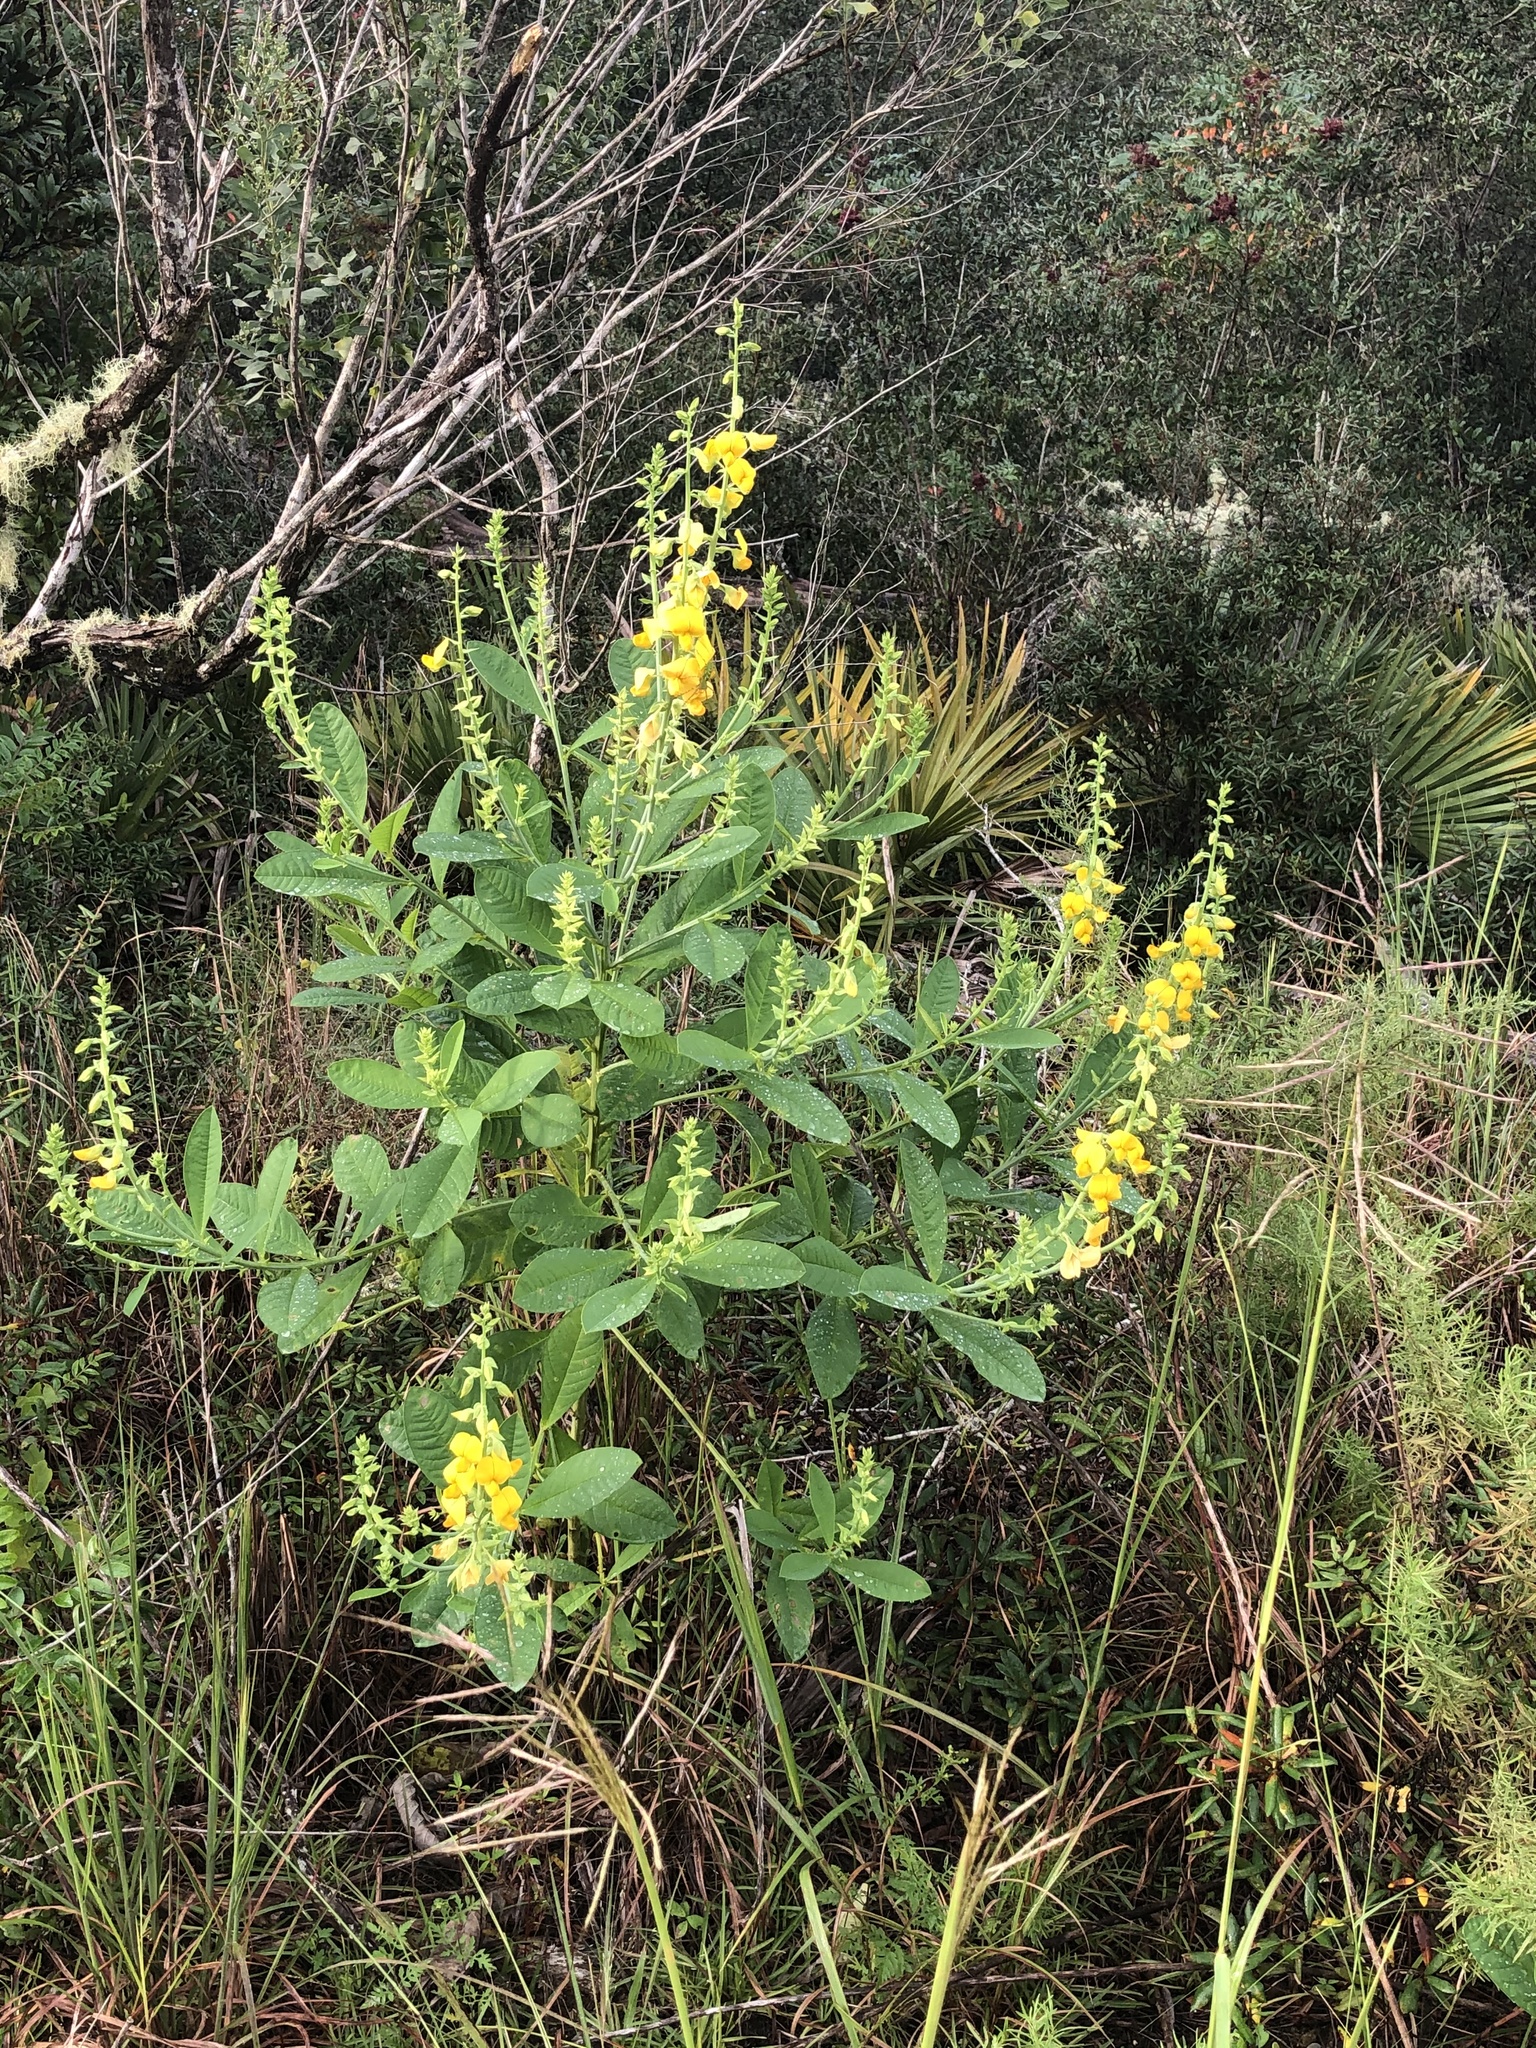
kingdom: Plantae
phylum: Tracheophyta
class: Magnoliopsida
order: Fabales
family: Fabaceae
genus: Crotalaria
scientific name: Crotalaria spectabilis
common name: Showy rattlebox
